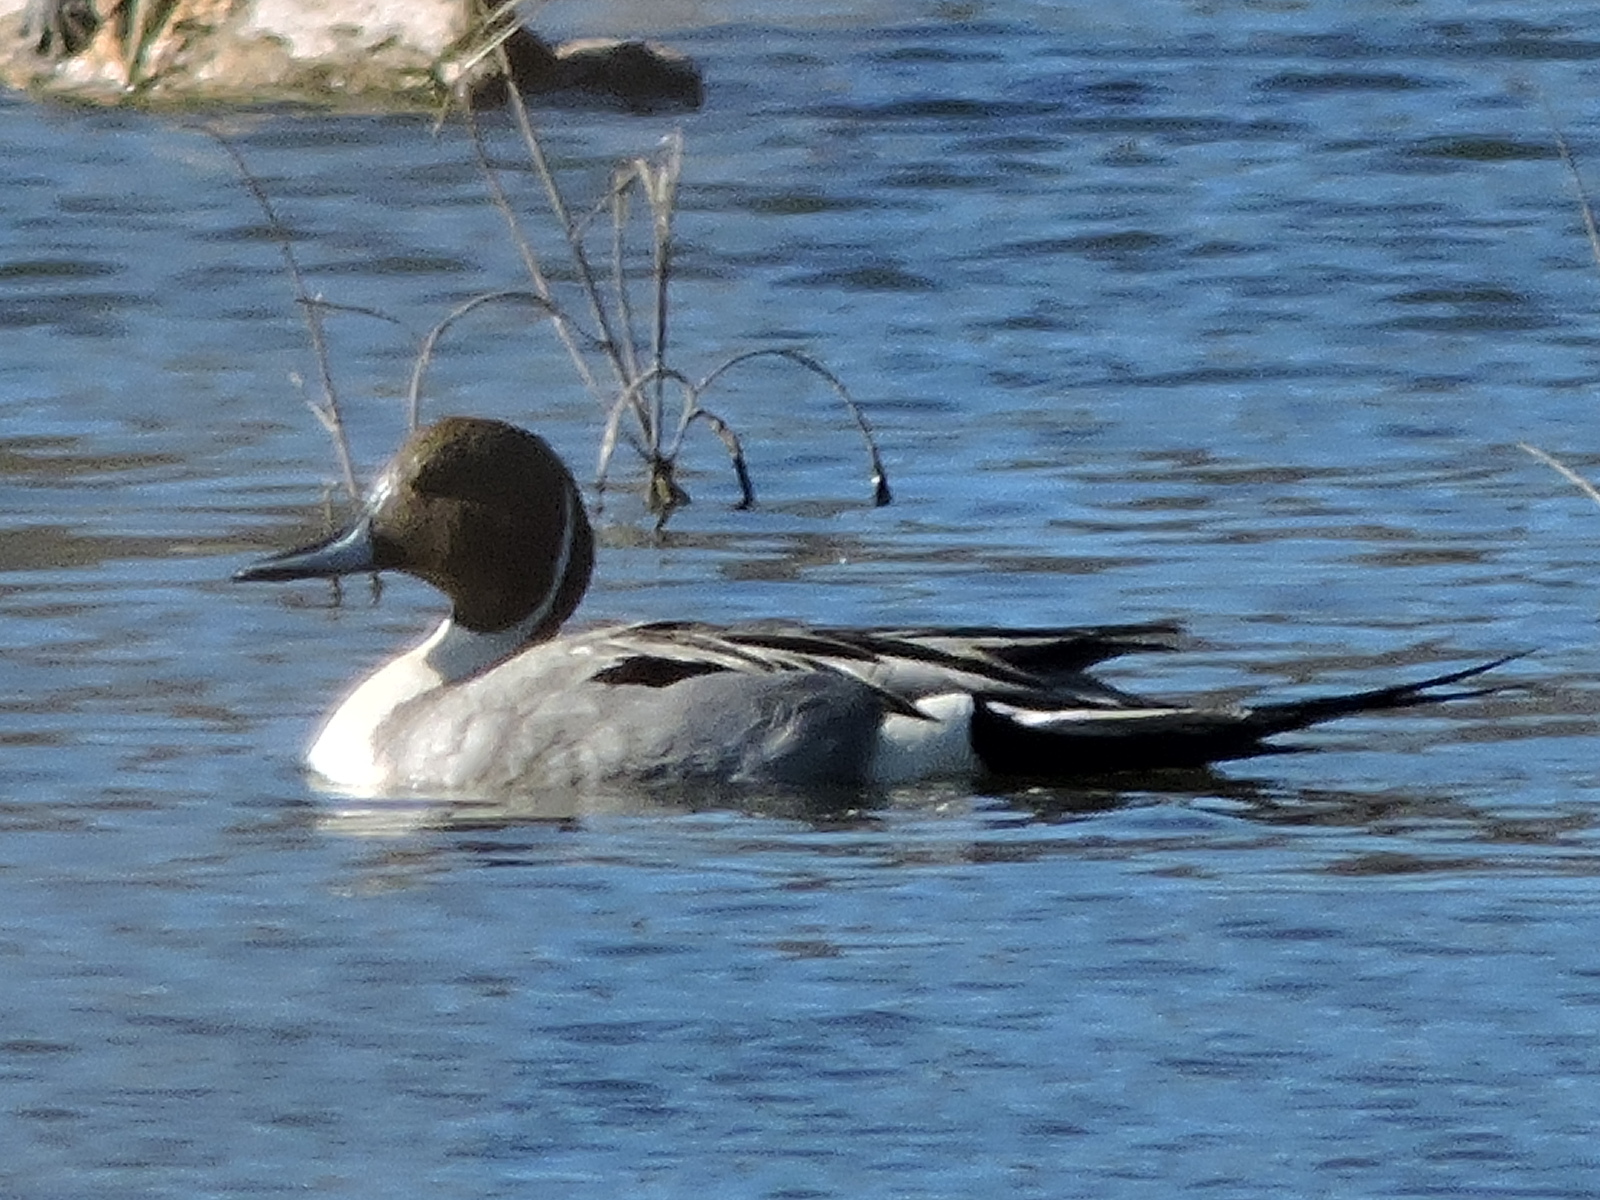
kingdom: Animalia
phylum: Chordata
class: Aves
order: Anseriformes
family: Anatidae
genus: Anas
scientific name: Anas acuta
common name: Northern pintail
